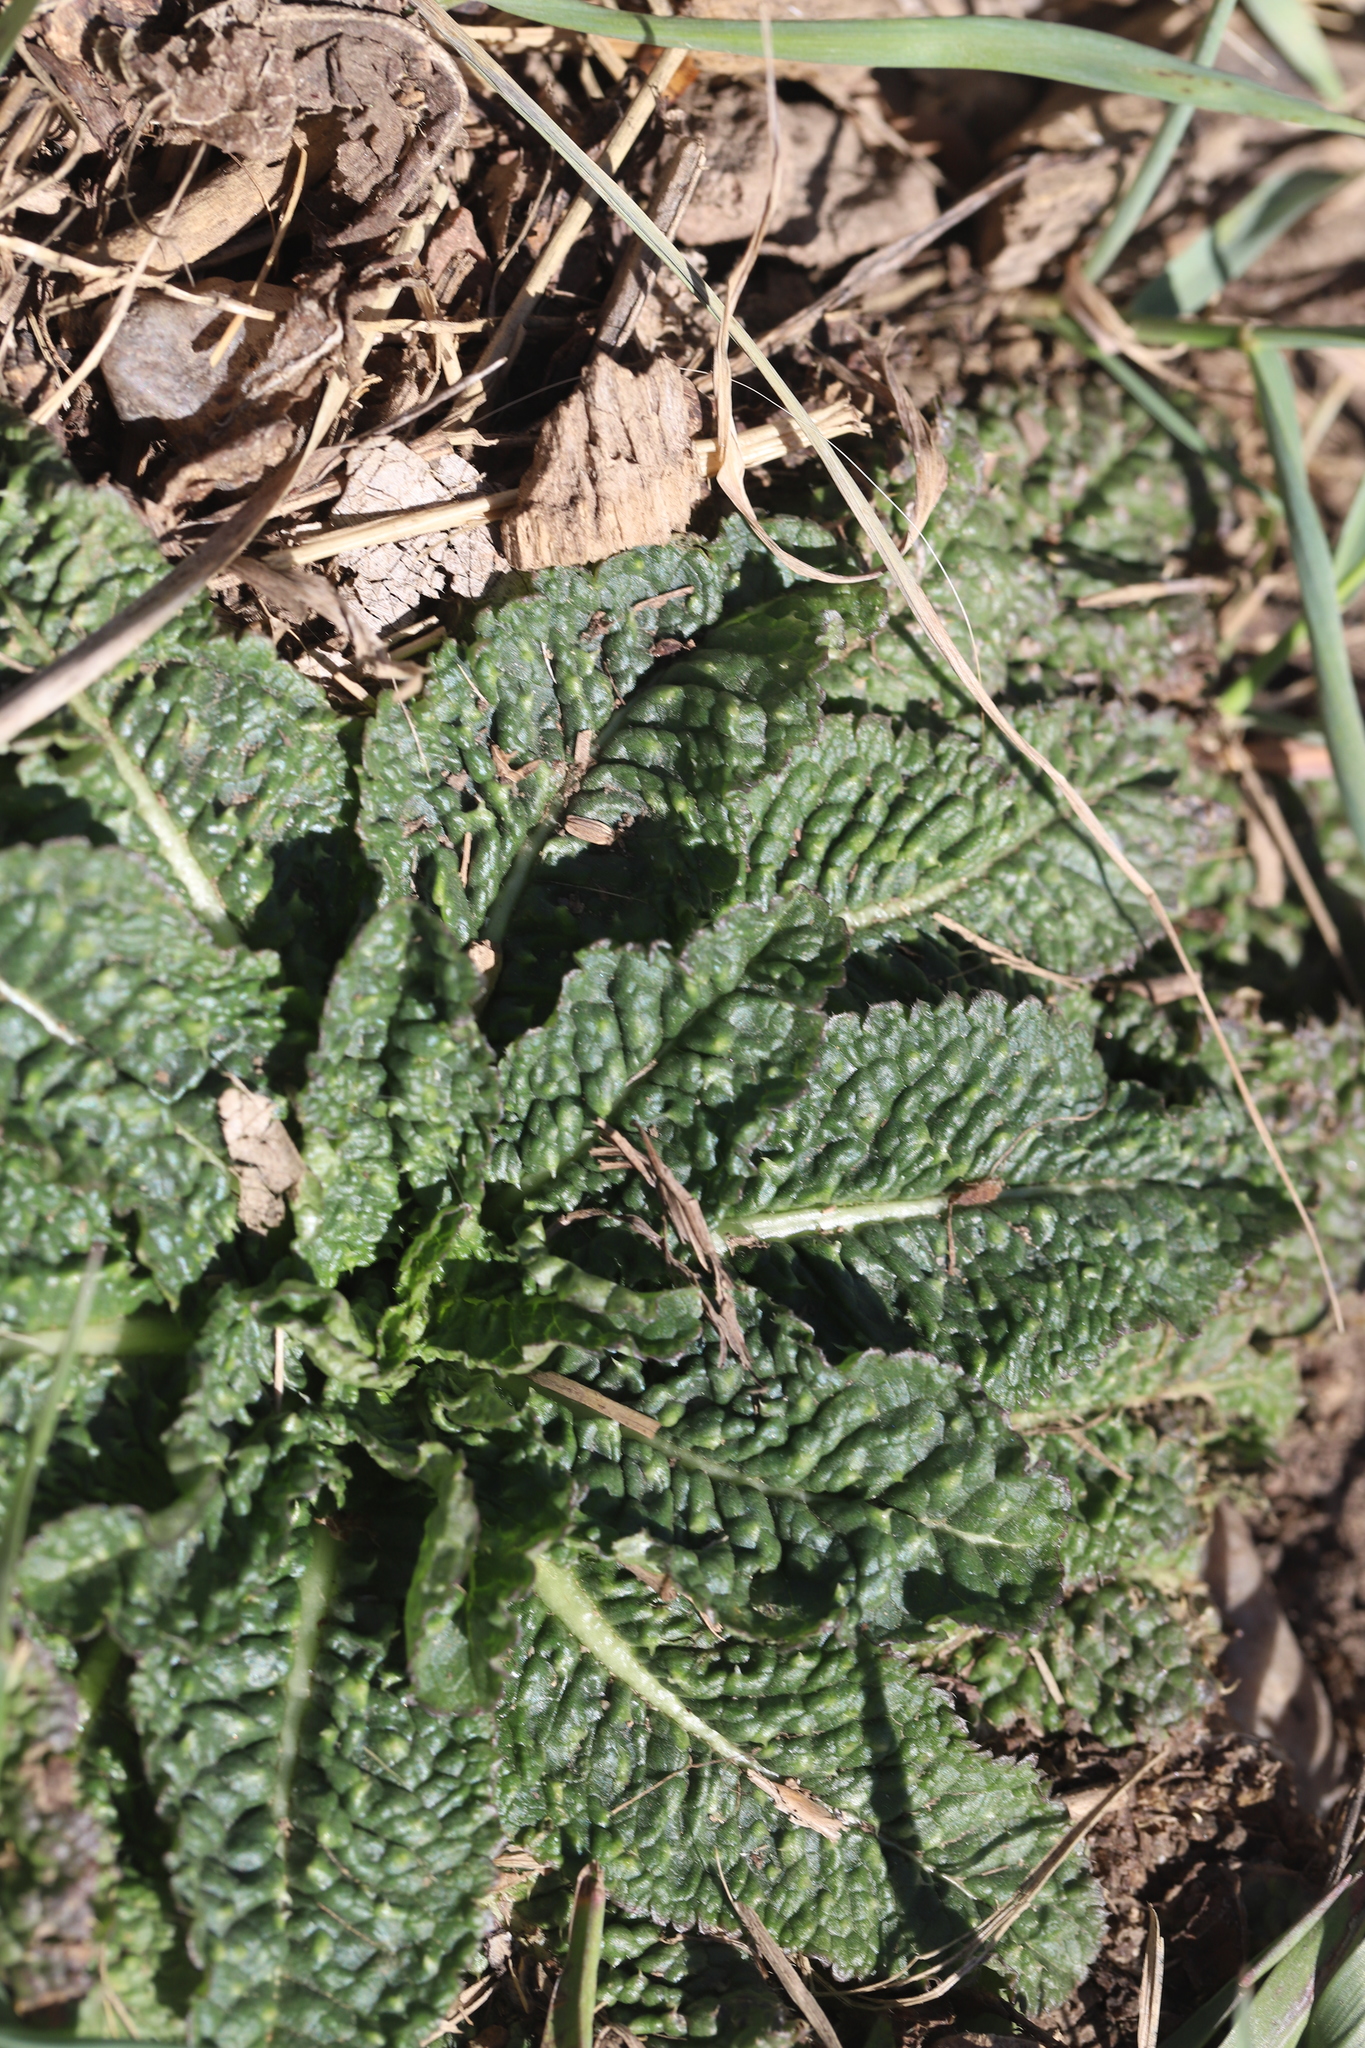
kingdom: Plantae
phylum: Tracheophyta
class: Magnoliopsida
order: Dipsacales
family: Caprifoliaceae
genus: Dipsacus
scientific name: Dipsacus fullonum
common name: Teasel
